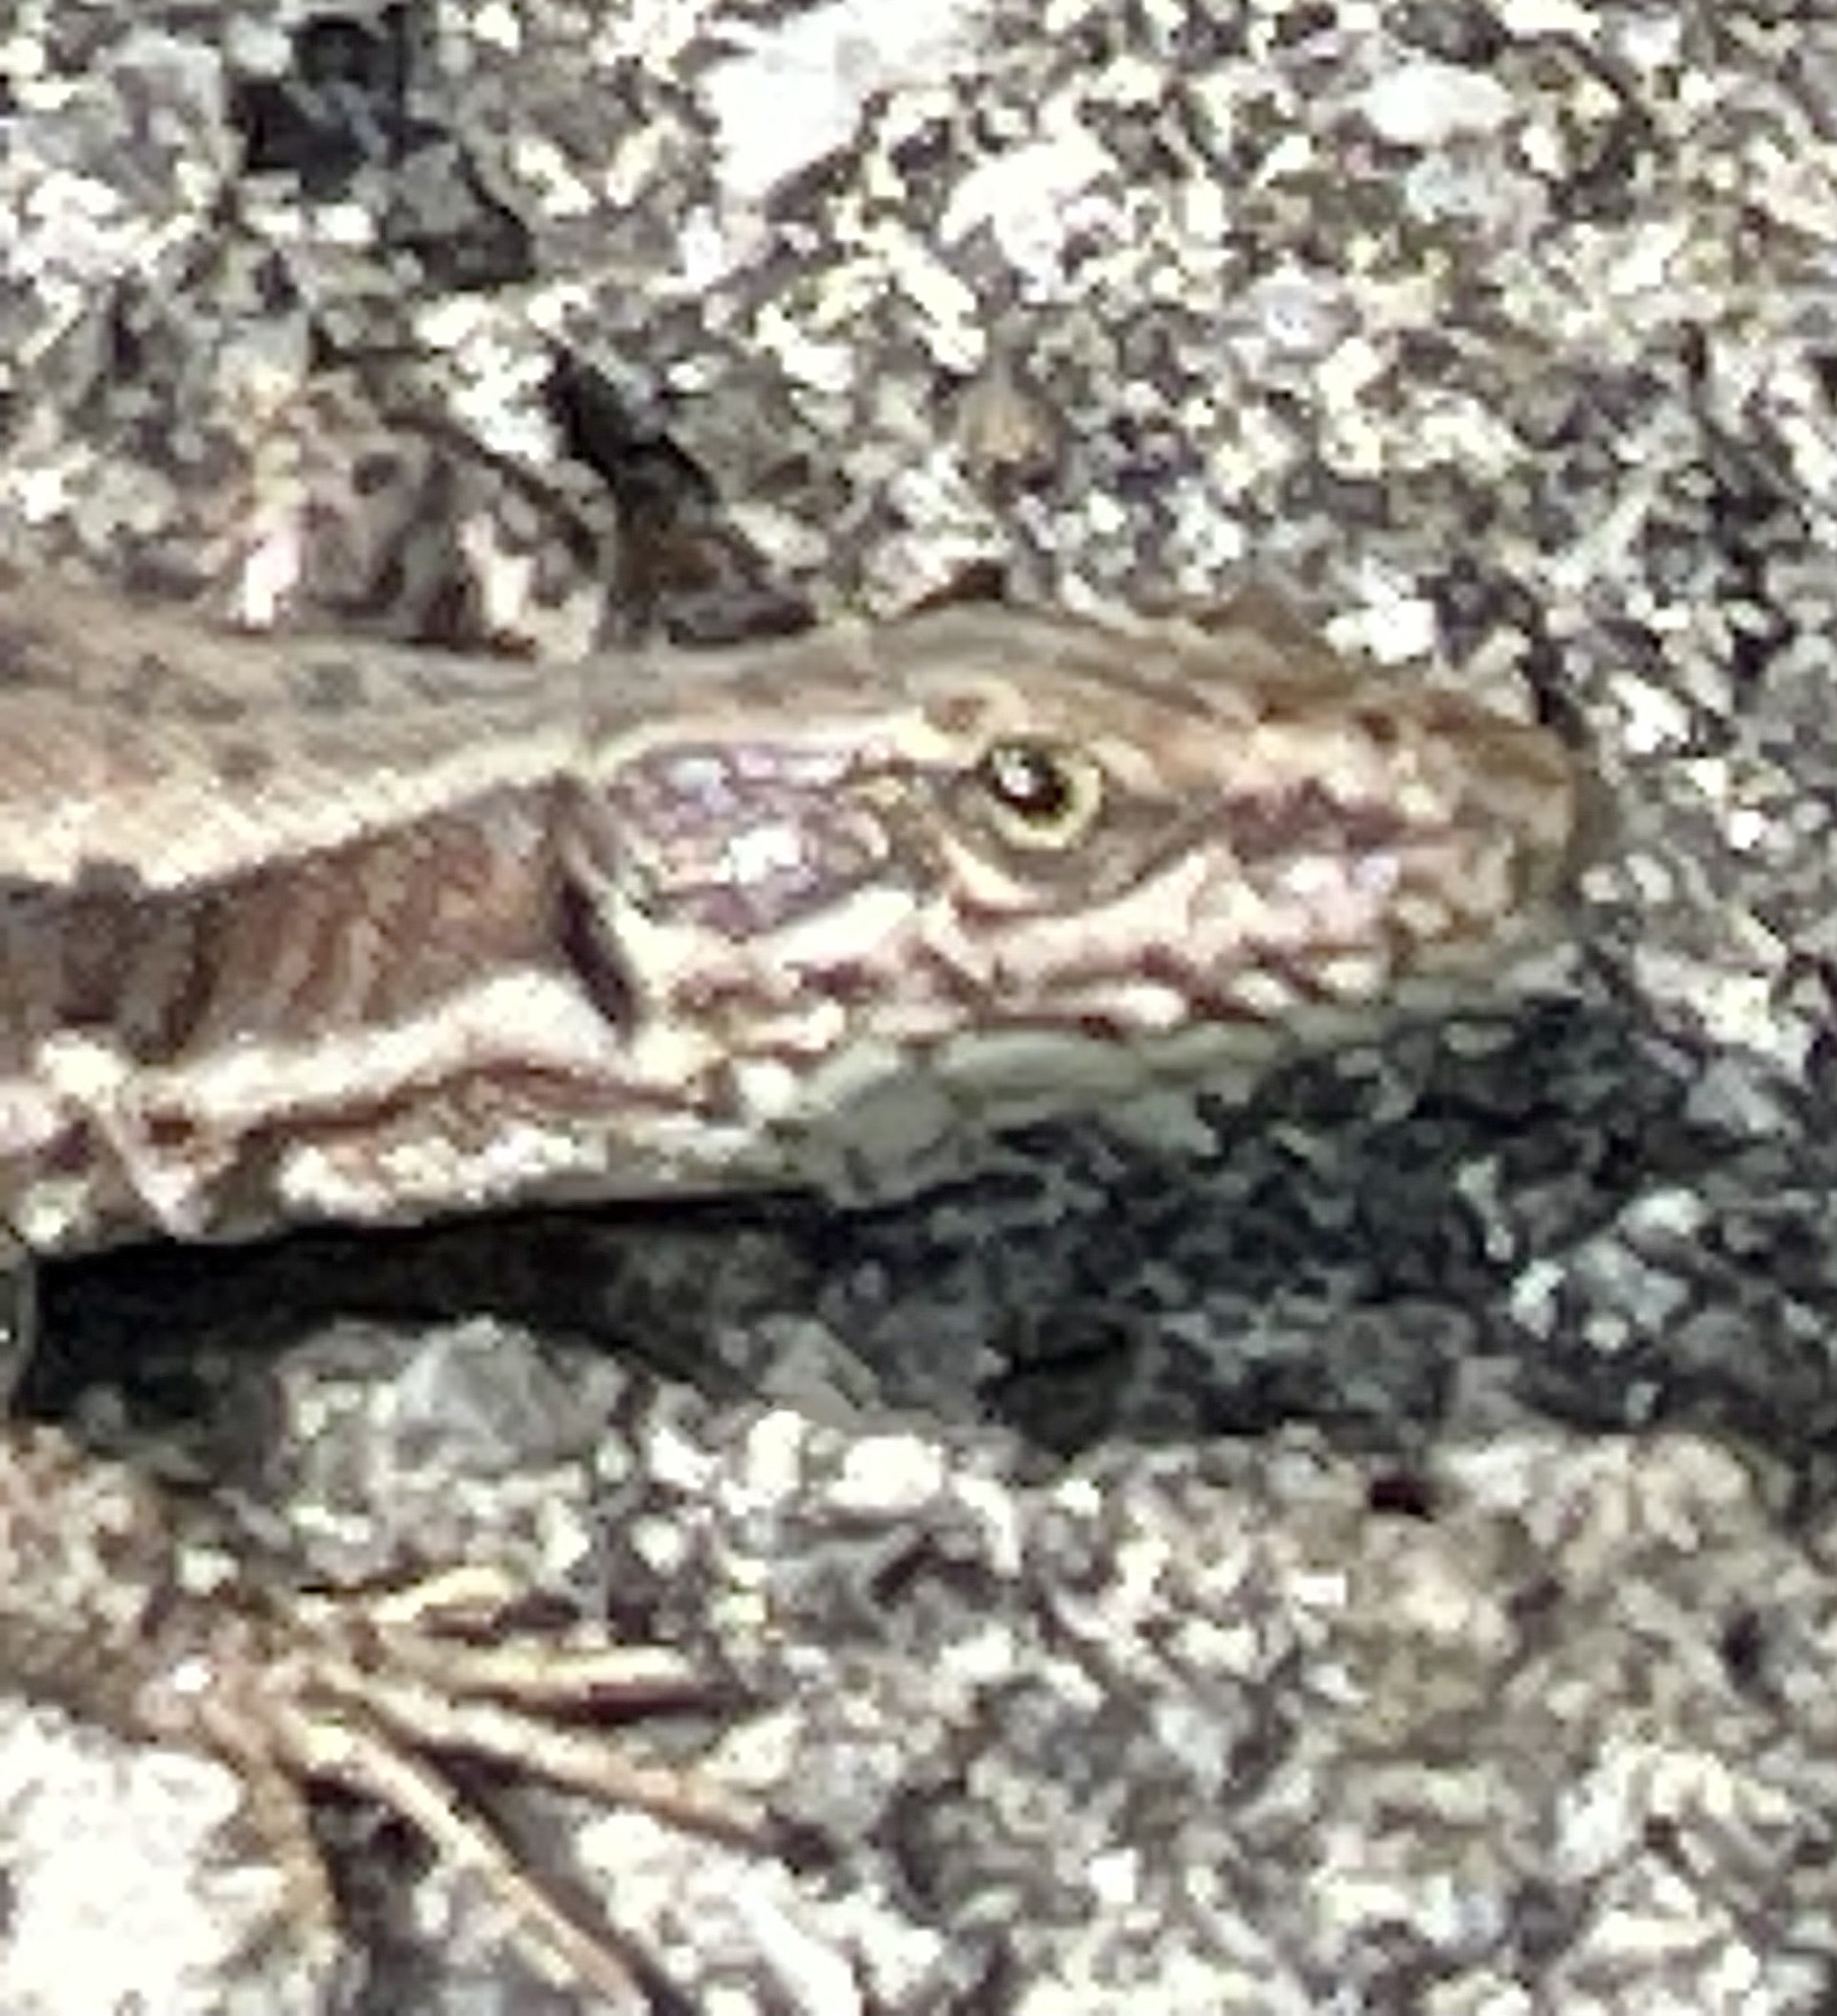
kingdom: Animalia
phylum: Chordata
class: Squamata
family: Lacertidae
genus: Podarcis
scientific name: Podarcis muralis
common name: Common wall lizard
